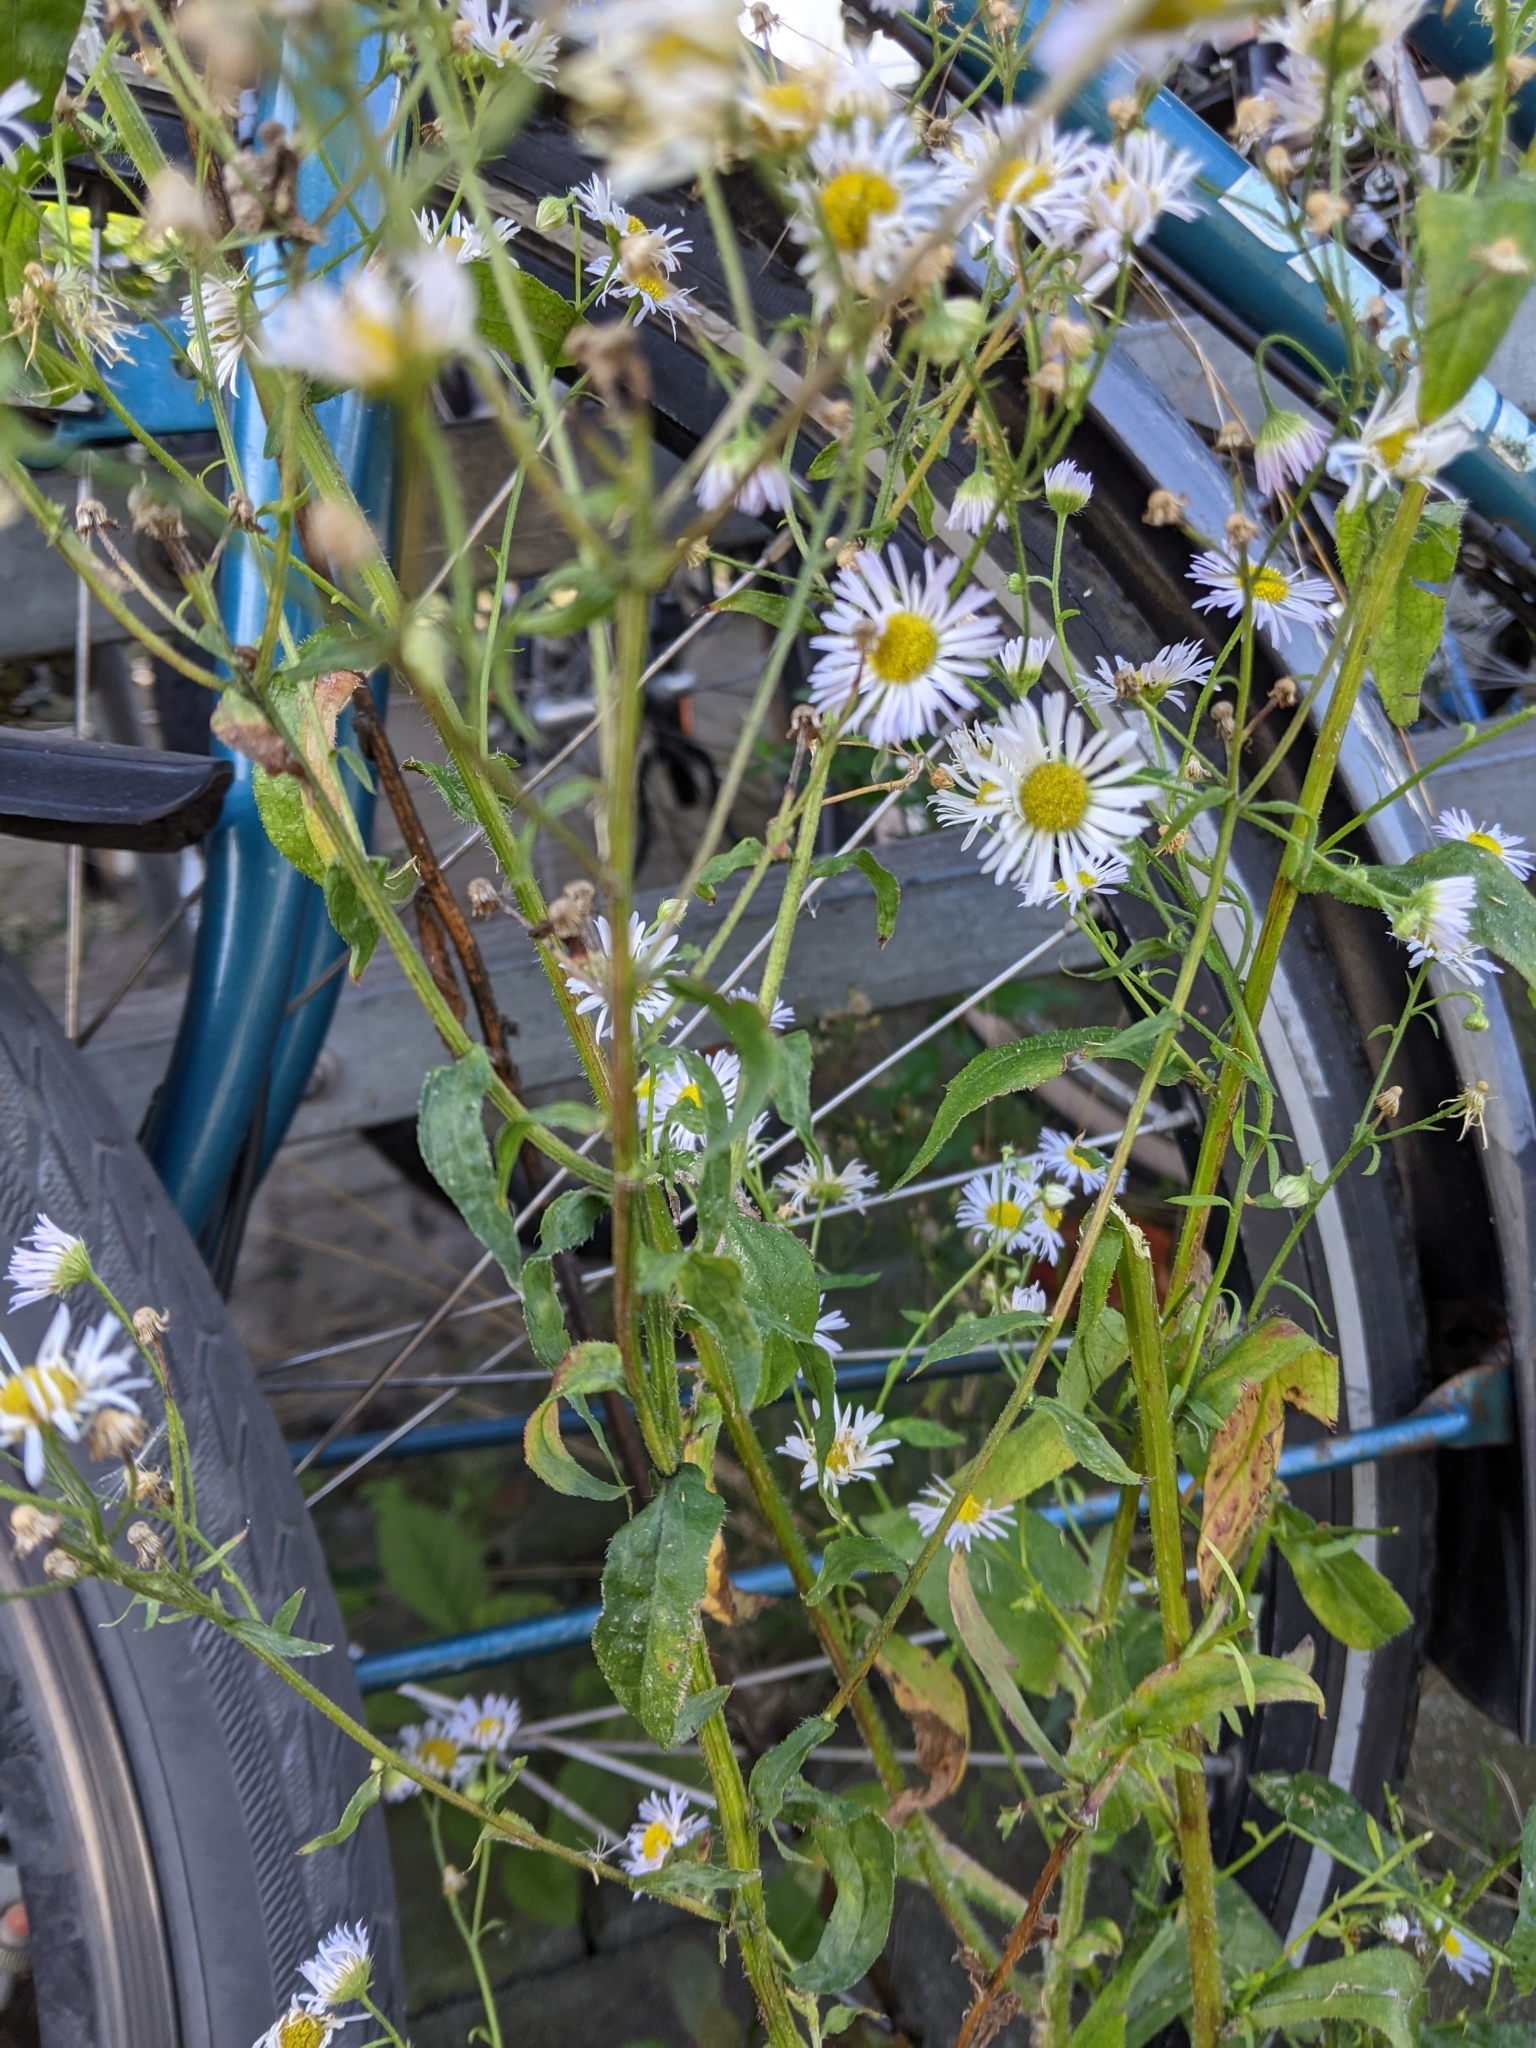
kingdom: Plantae
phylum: Tracheophyta
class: Magnoliopsida
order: Asterales
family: Asteraceae
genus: Erigeron
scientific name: Erigeron annuus
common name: Tall fleabane
